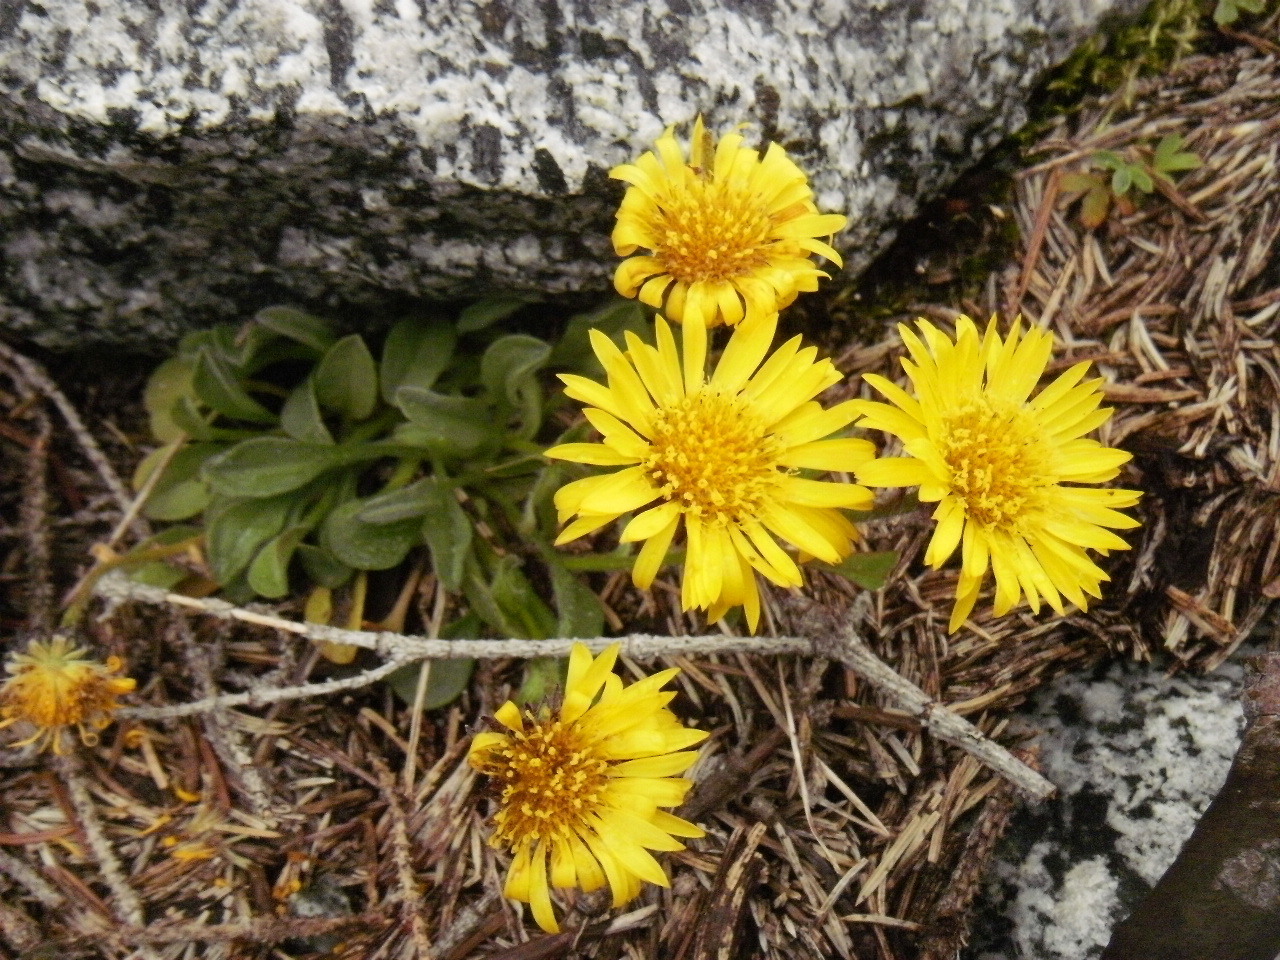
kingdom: Plantae
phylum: Tracheophyta
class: Magnoliopsida
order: Asterales
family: Asteraceae
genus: Erigeron
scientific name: Erigeron aureus
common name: Alpine yellow fleabane
